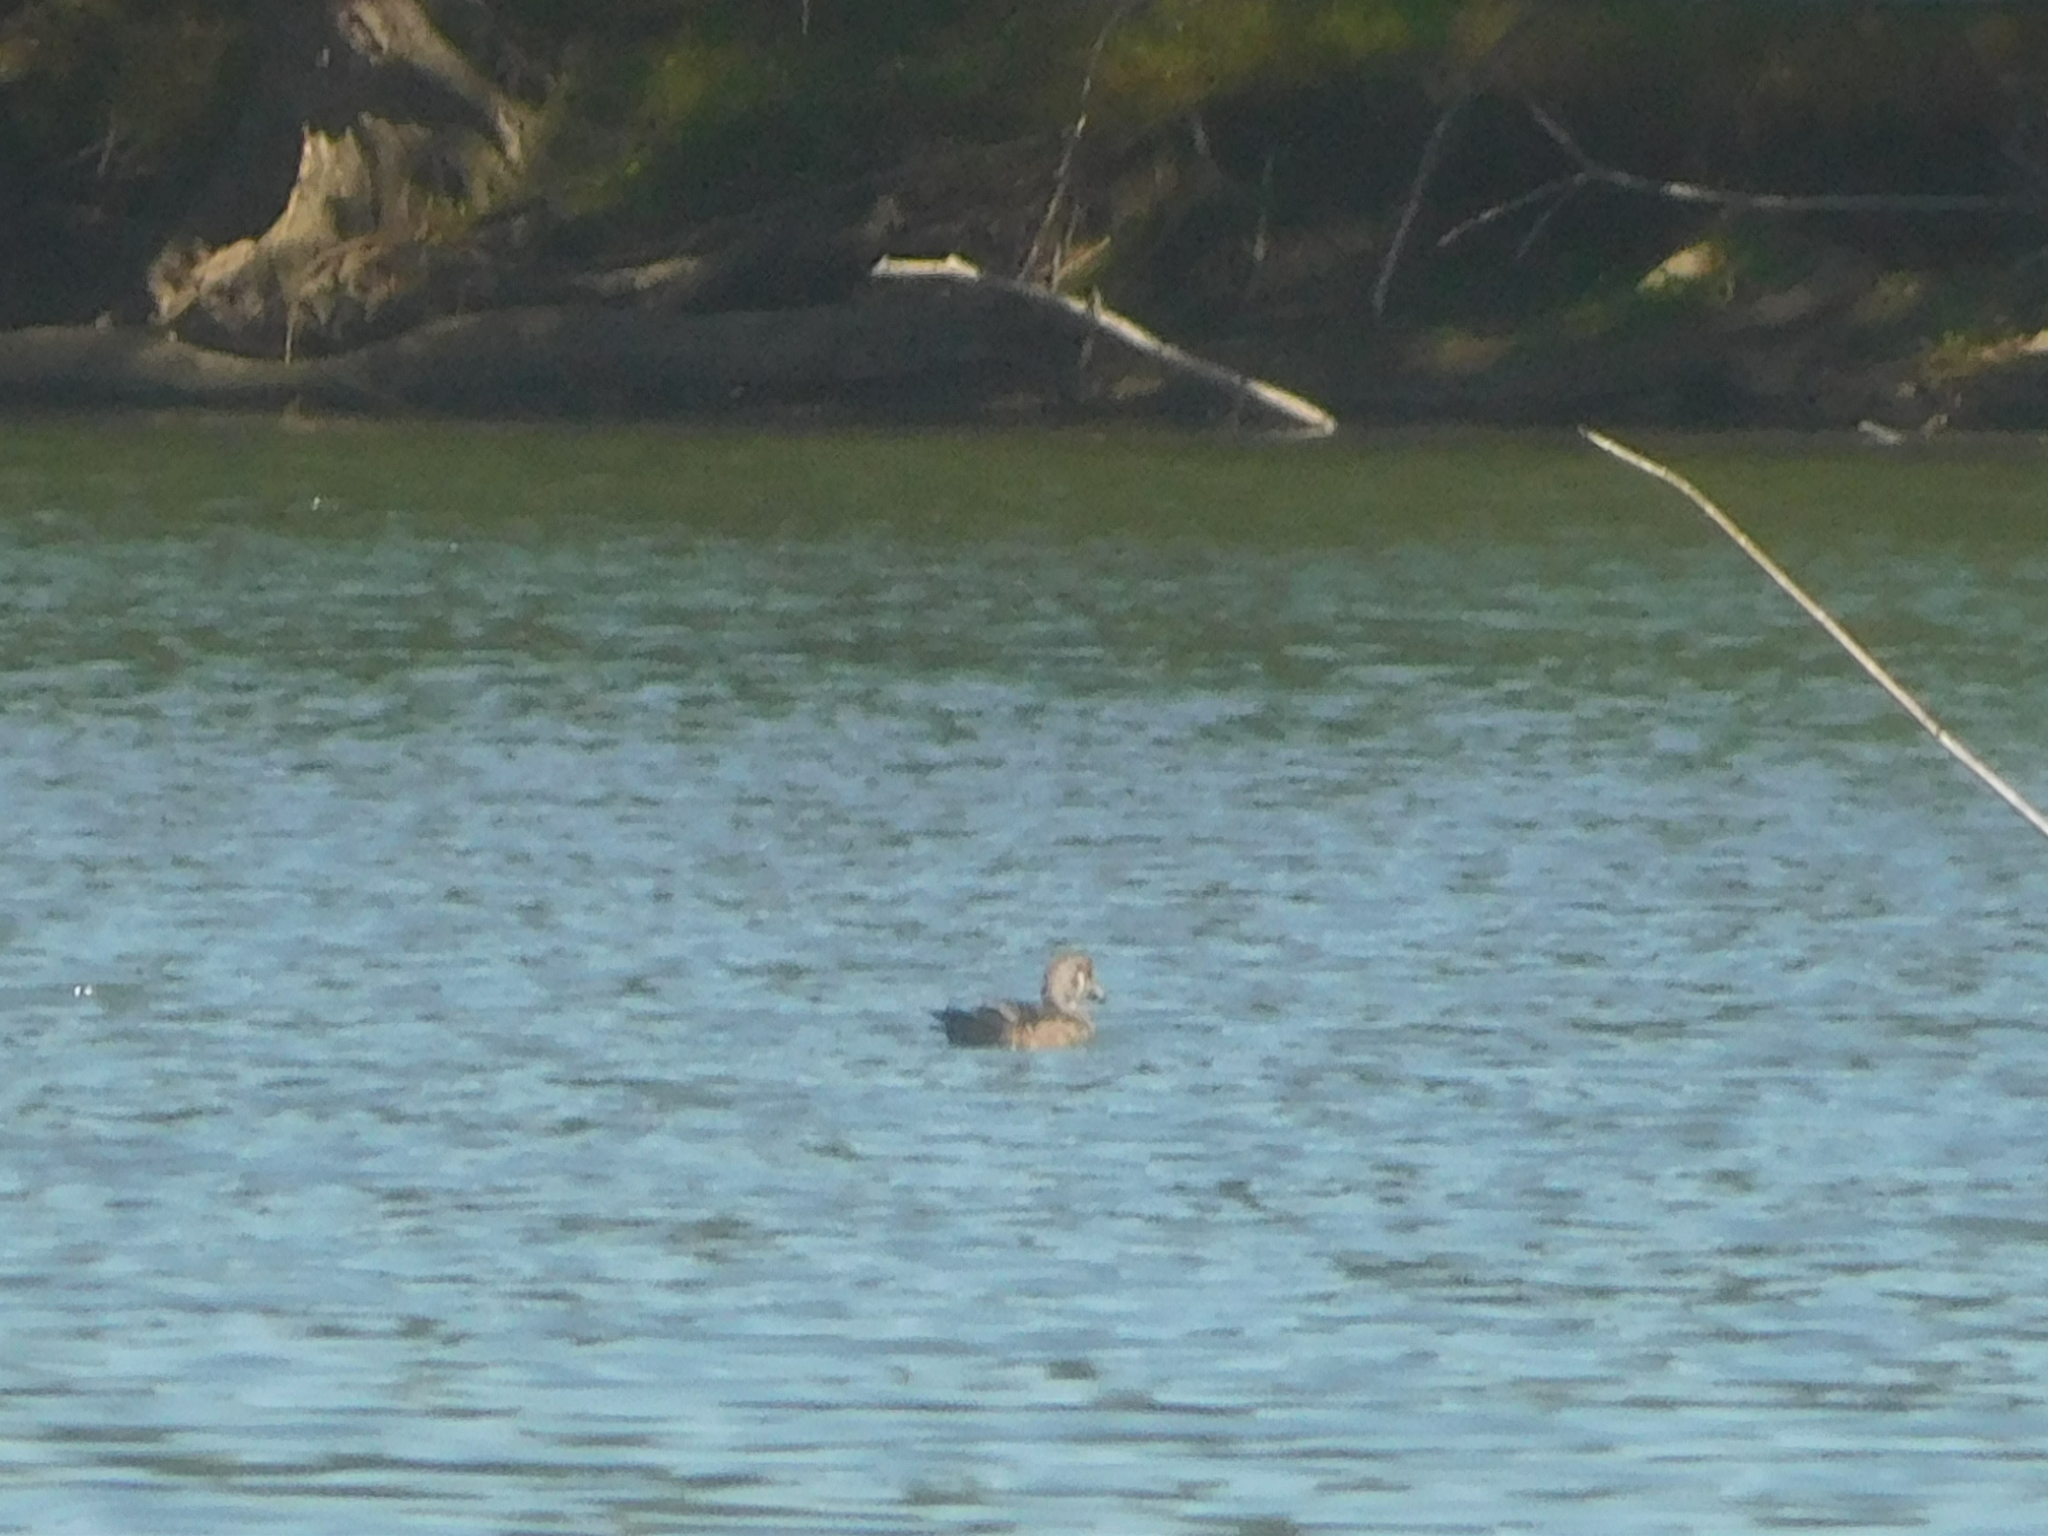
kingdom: Animalia
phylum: Chordata
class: Aves
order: Anseriformes
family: Anatidae
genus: Aix
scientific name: Aix sponsa
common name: Wood duck
